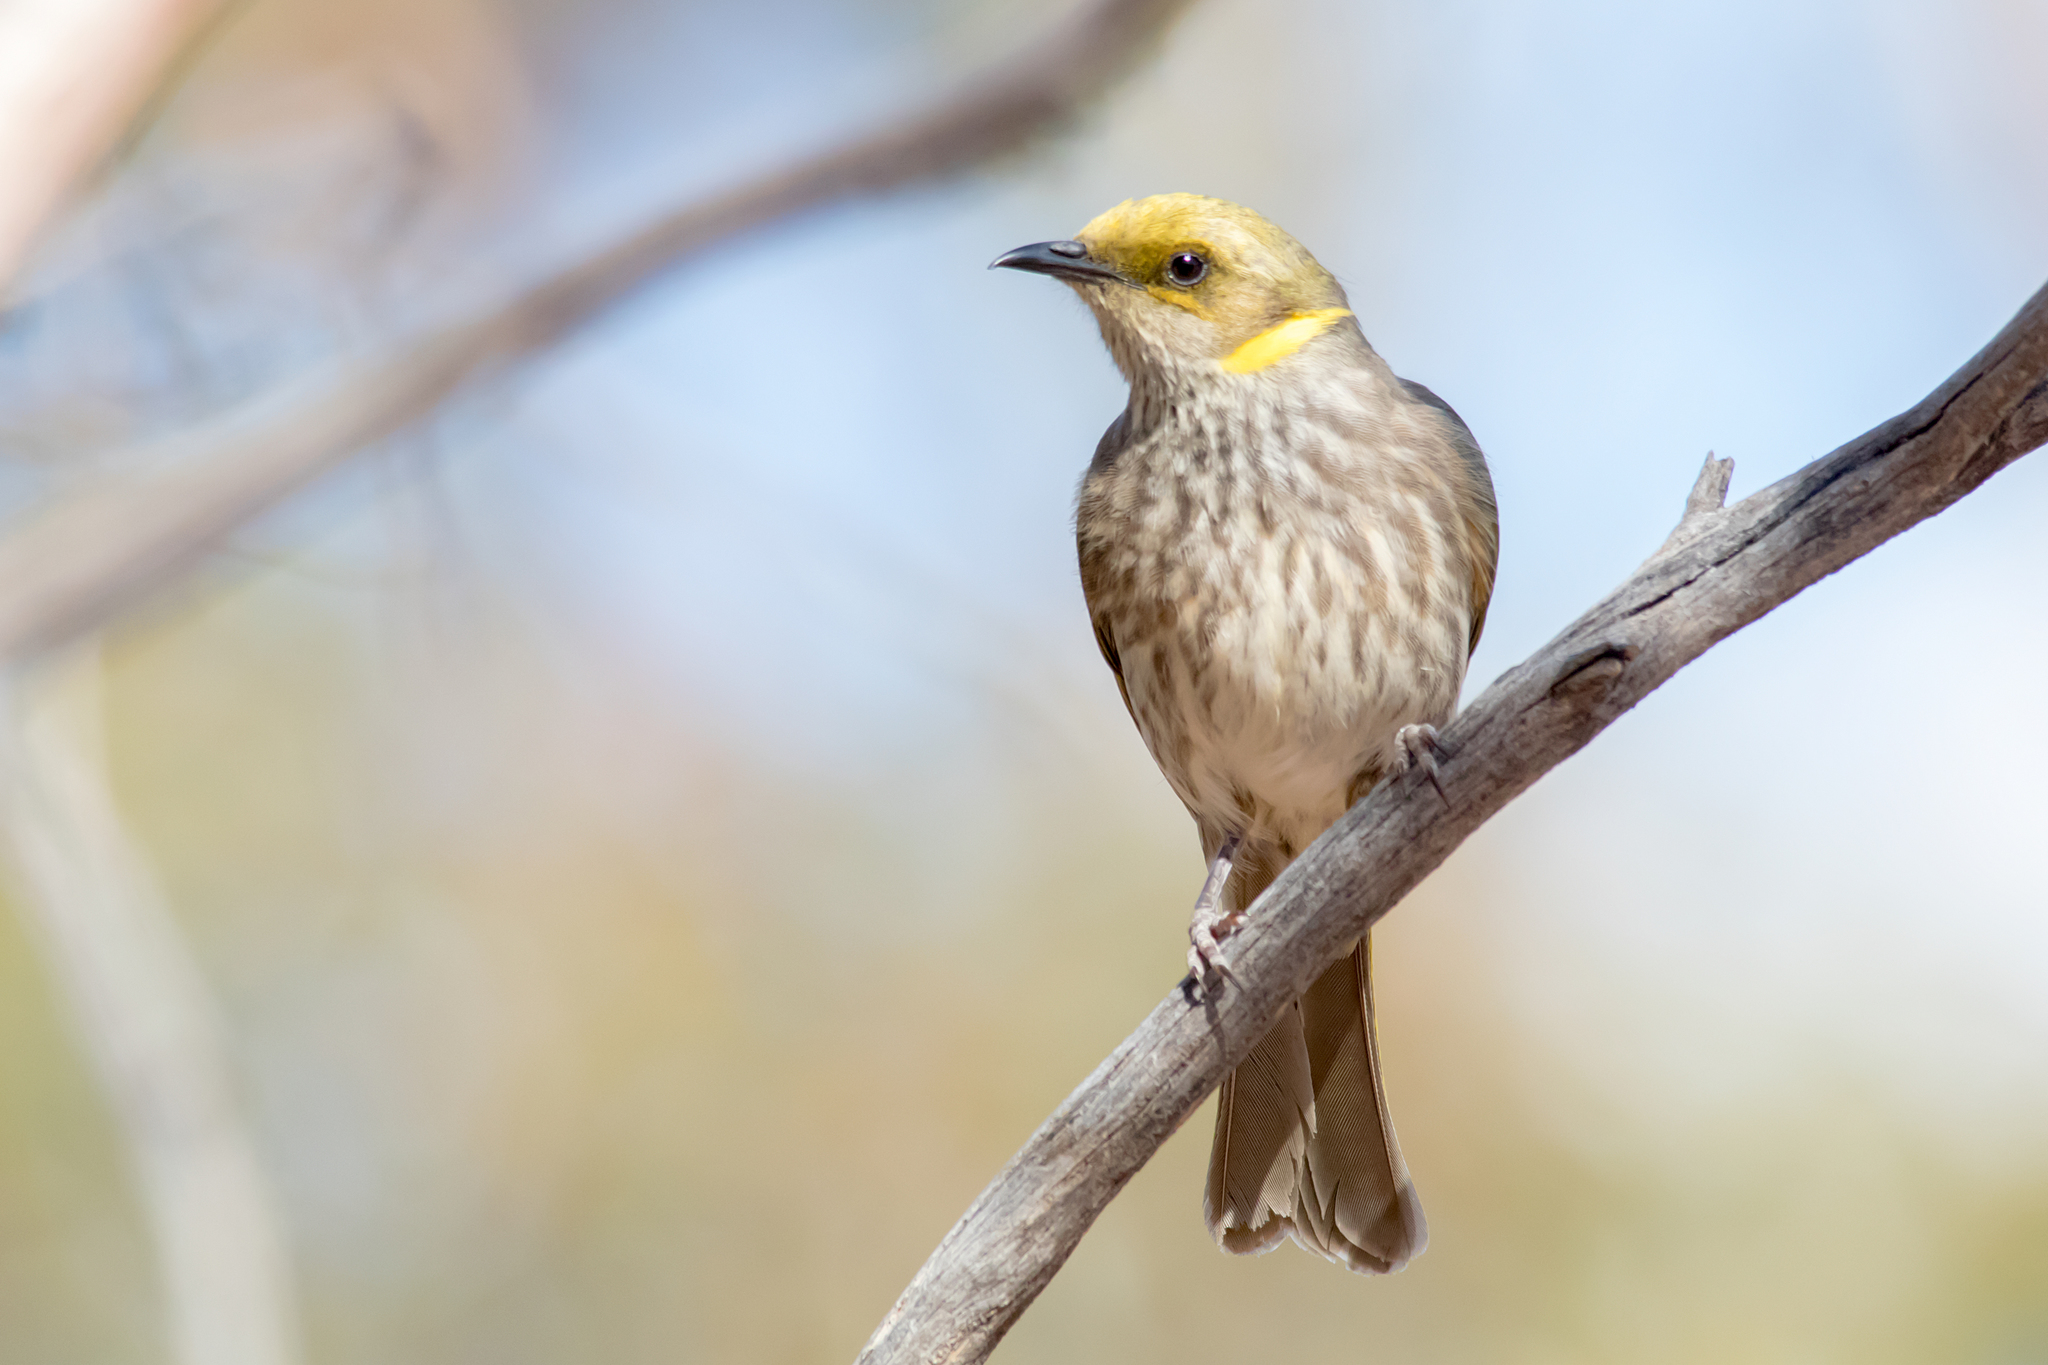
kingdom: Animalia
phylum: Chordata
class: Aves
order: Passeriformes
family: Meliphagidae
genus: Ptilotula
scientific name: Ptilotula ornata
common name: Yellow-plumed honeyeater
